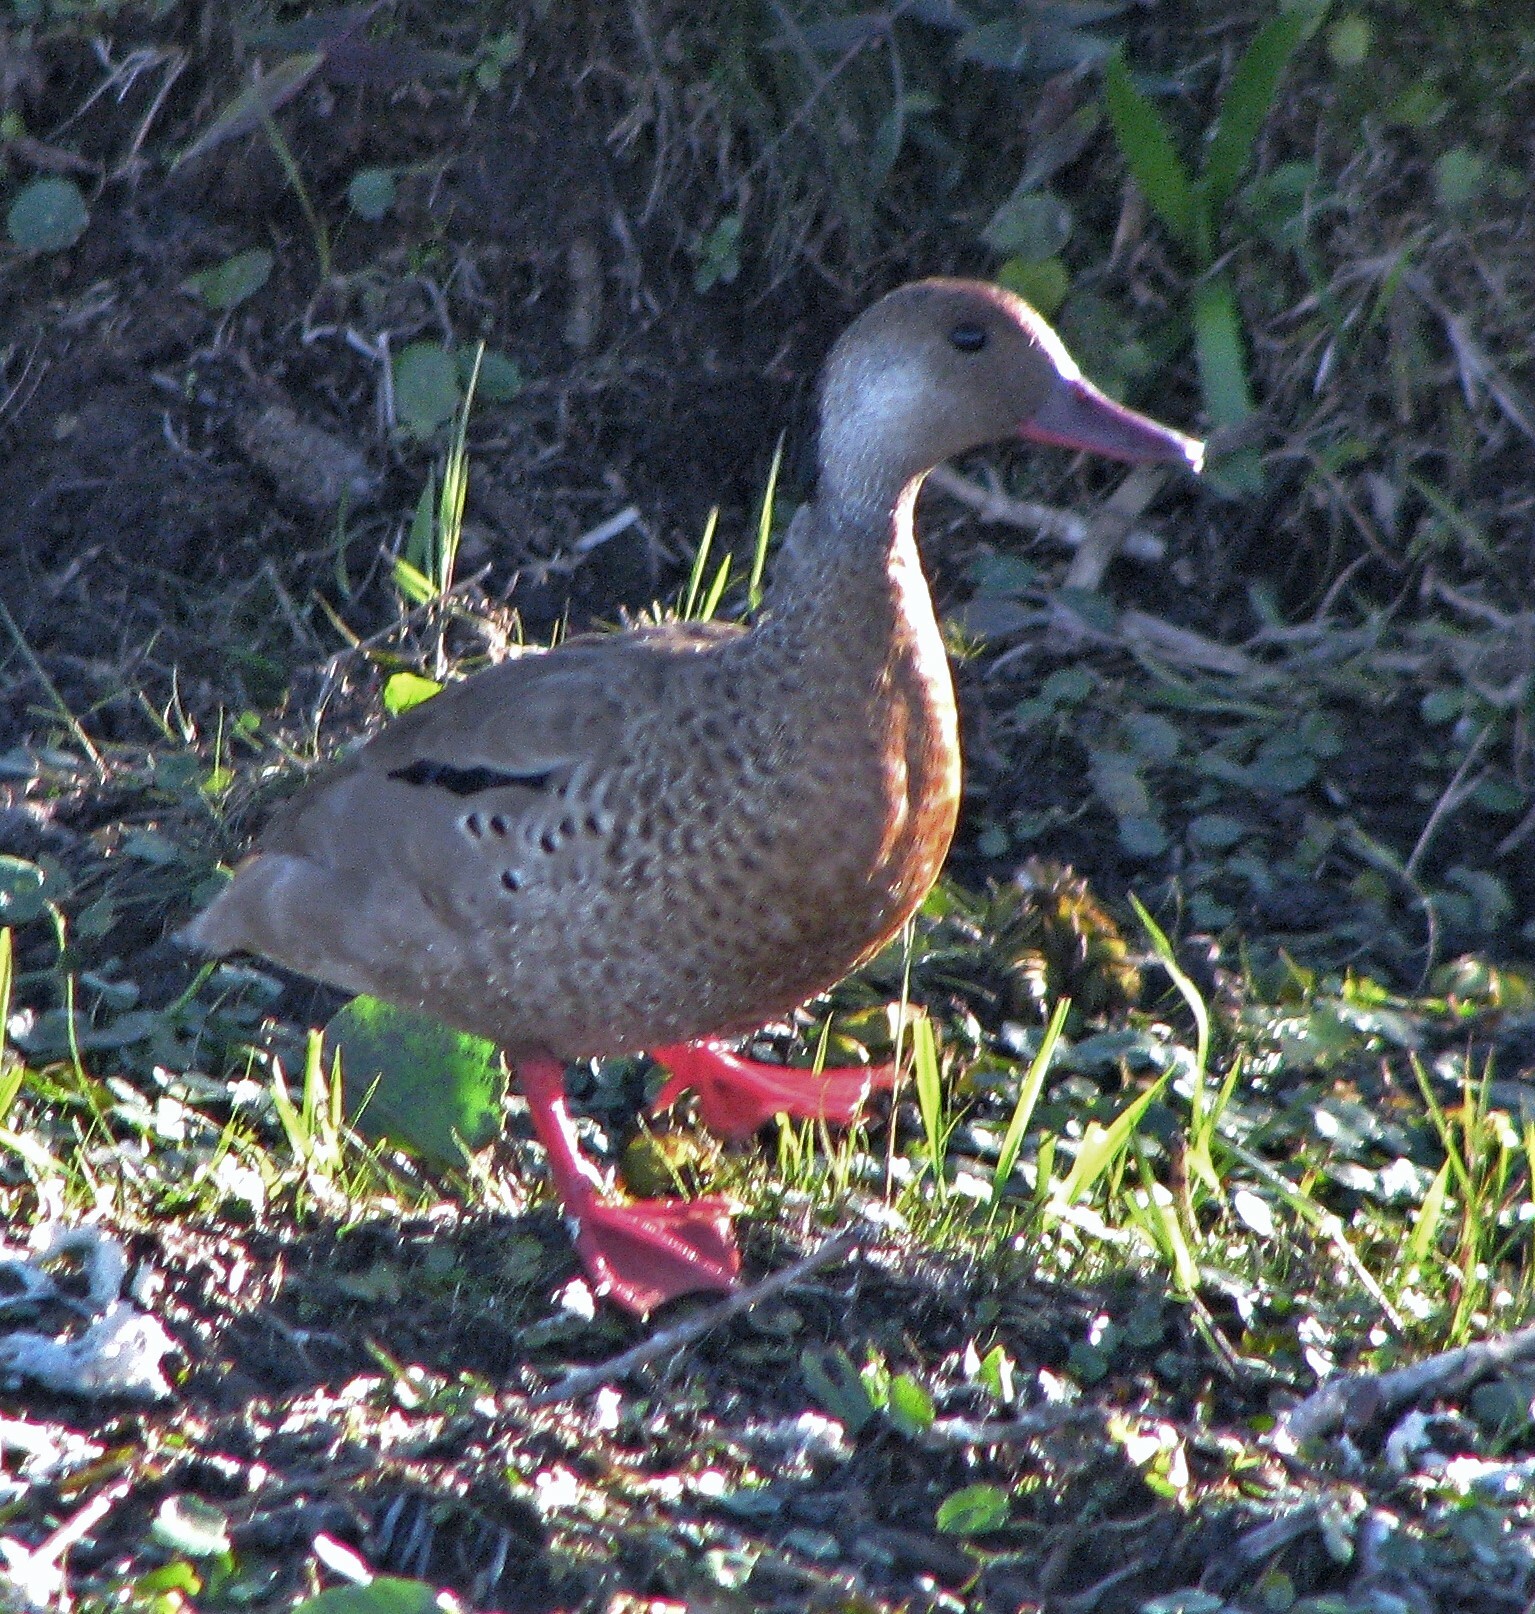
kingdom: Animalia
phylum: Chordata
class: Aves
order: Anseriformes
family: Anatidae
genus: Amazonetta
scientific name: Amazonetta brasiliensis
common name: Brazilian teal
